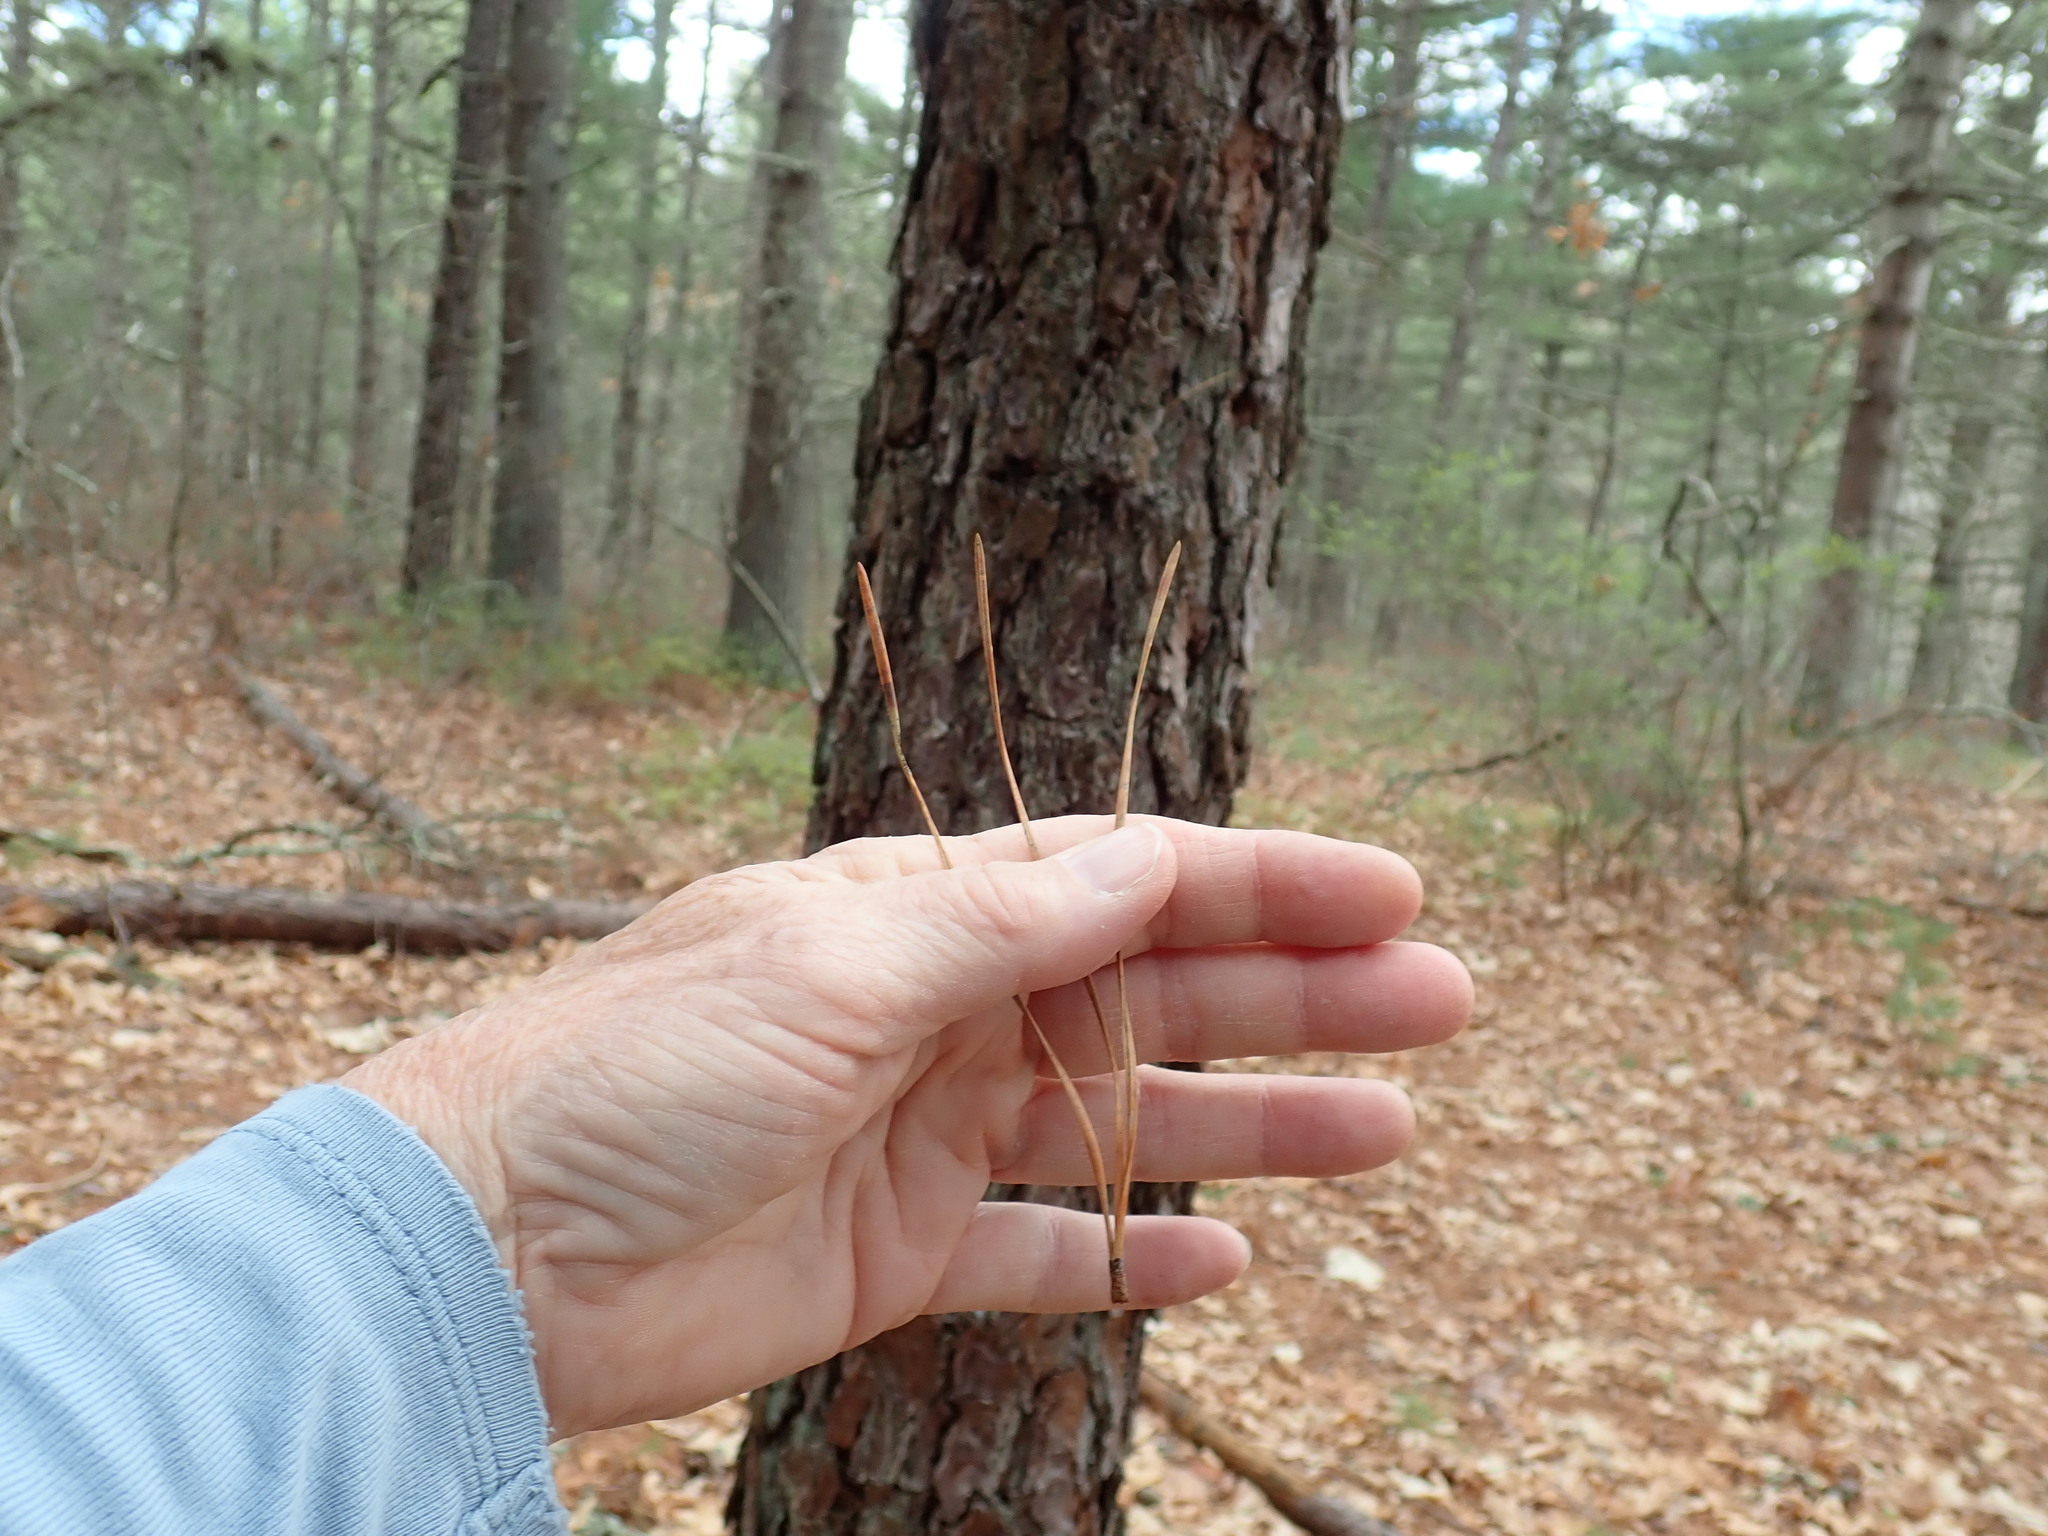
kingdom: Plantae
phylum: Tracheophyta
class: Pinopsida
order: Pinales
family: Pinaceae
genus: Pinus
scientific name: Pinus rigida
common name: Pitch pine
